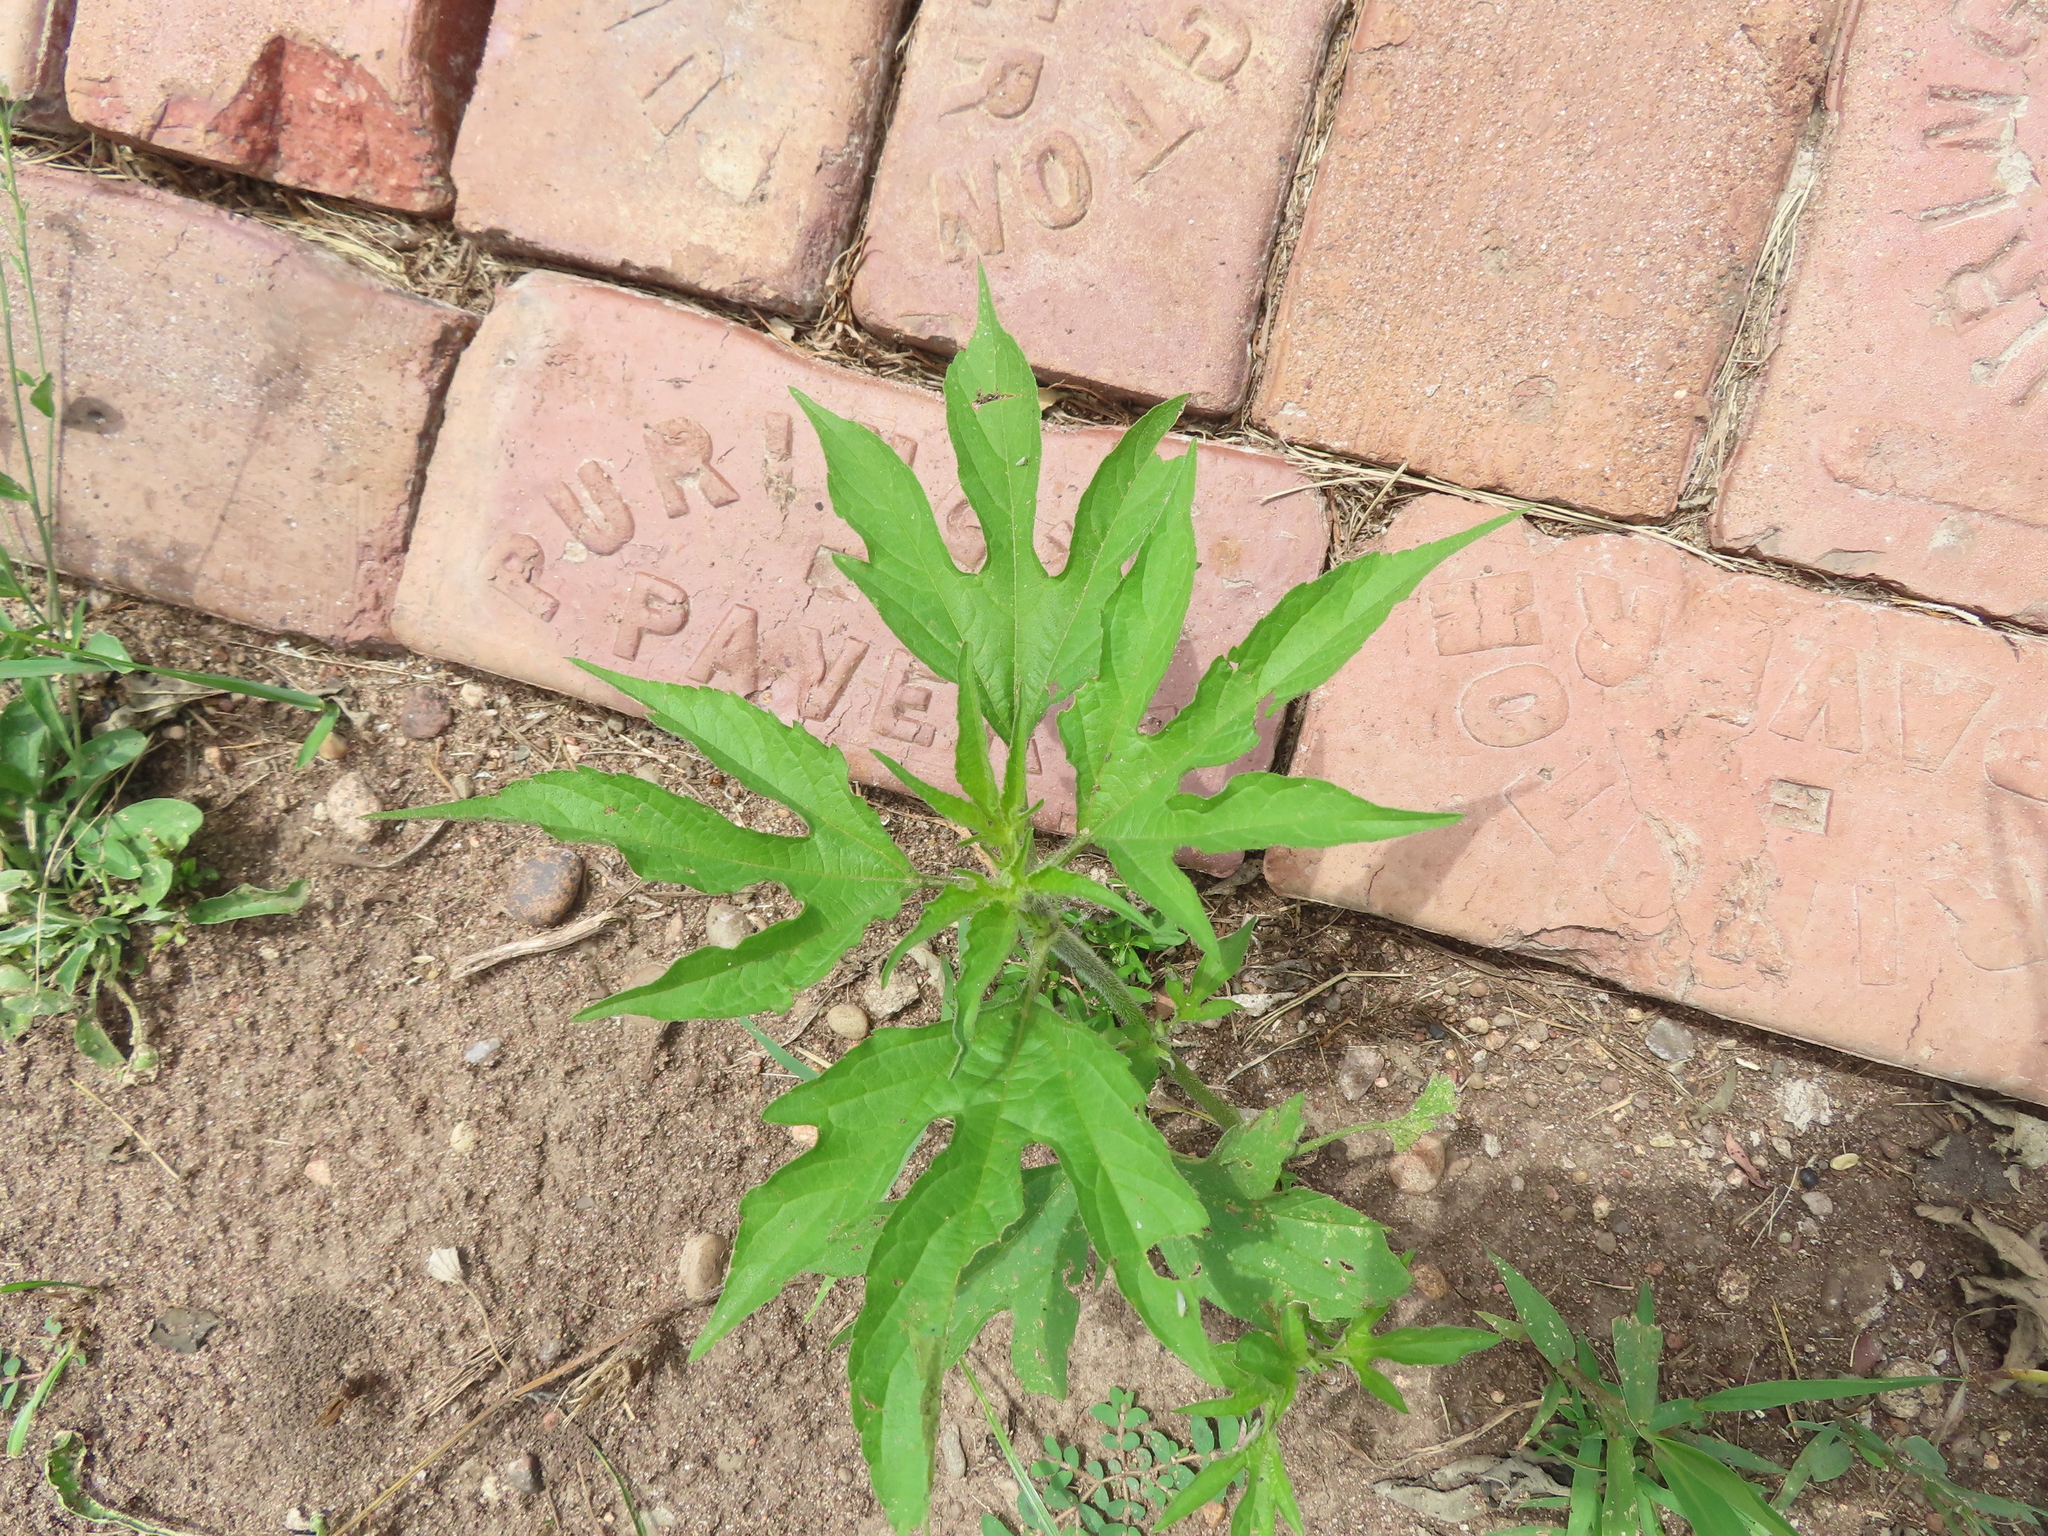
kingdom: Plantae
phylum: Tracheophyta
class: Magnoliopsida
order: Asterales
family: Asteraceae
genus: Ambrosia
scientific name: Ambrosia trifida
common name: Giant ragweed
